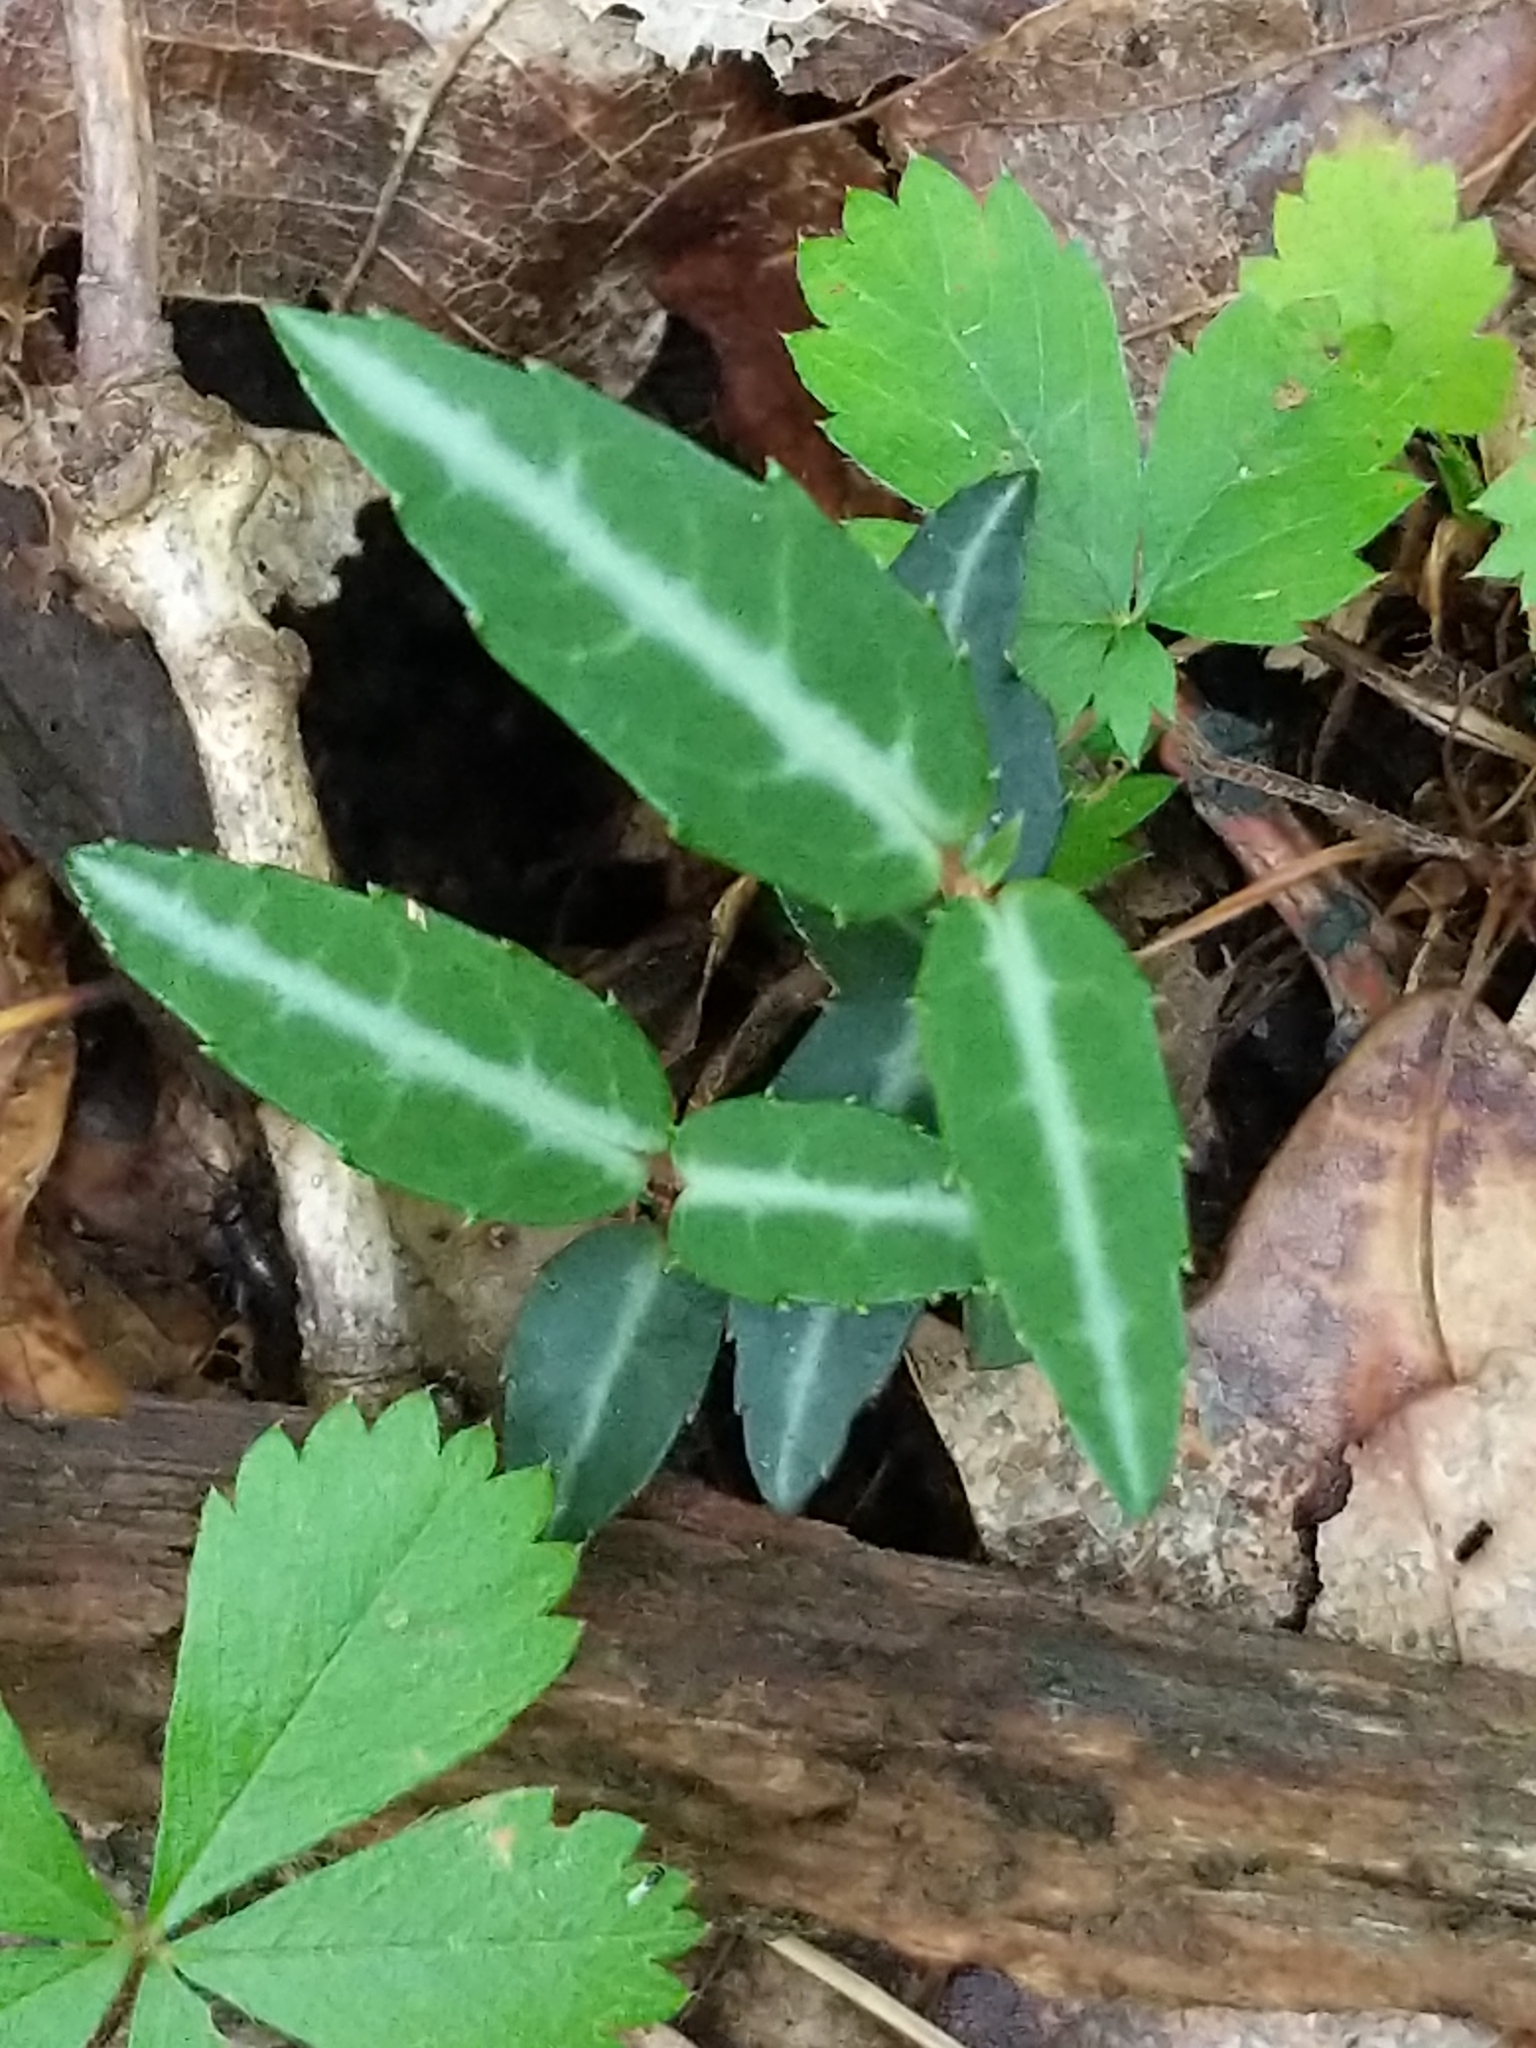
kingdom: Plantae
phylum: Tracheophyta
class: Magnoliopsida
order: Ericales
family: Ericaceae
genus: Chimaphila
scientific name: Chimaphila maculata
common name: Spotted pipsissewa
